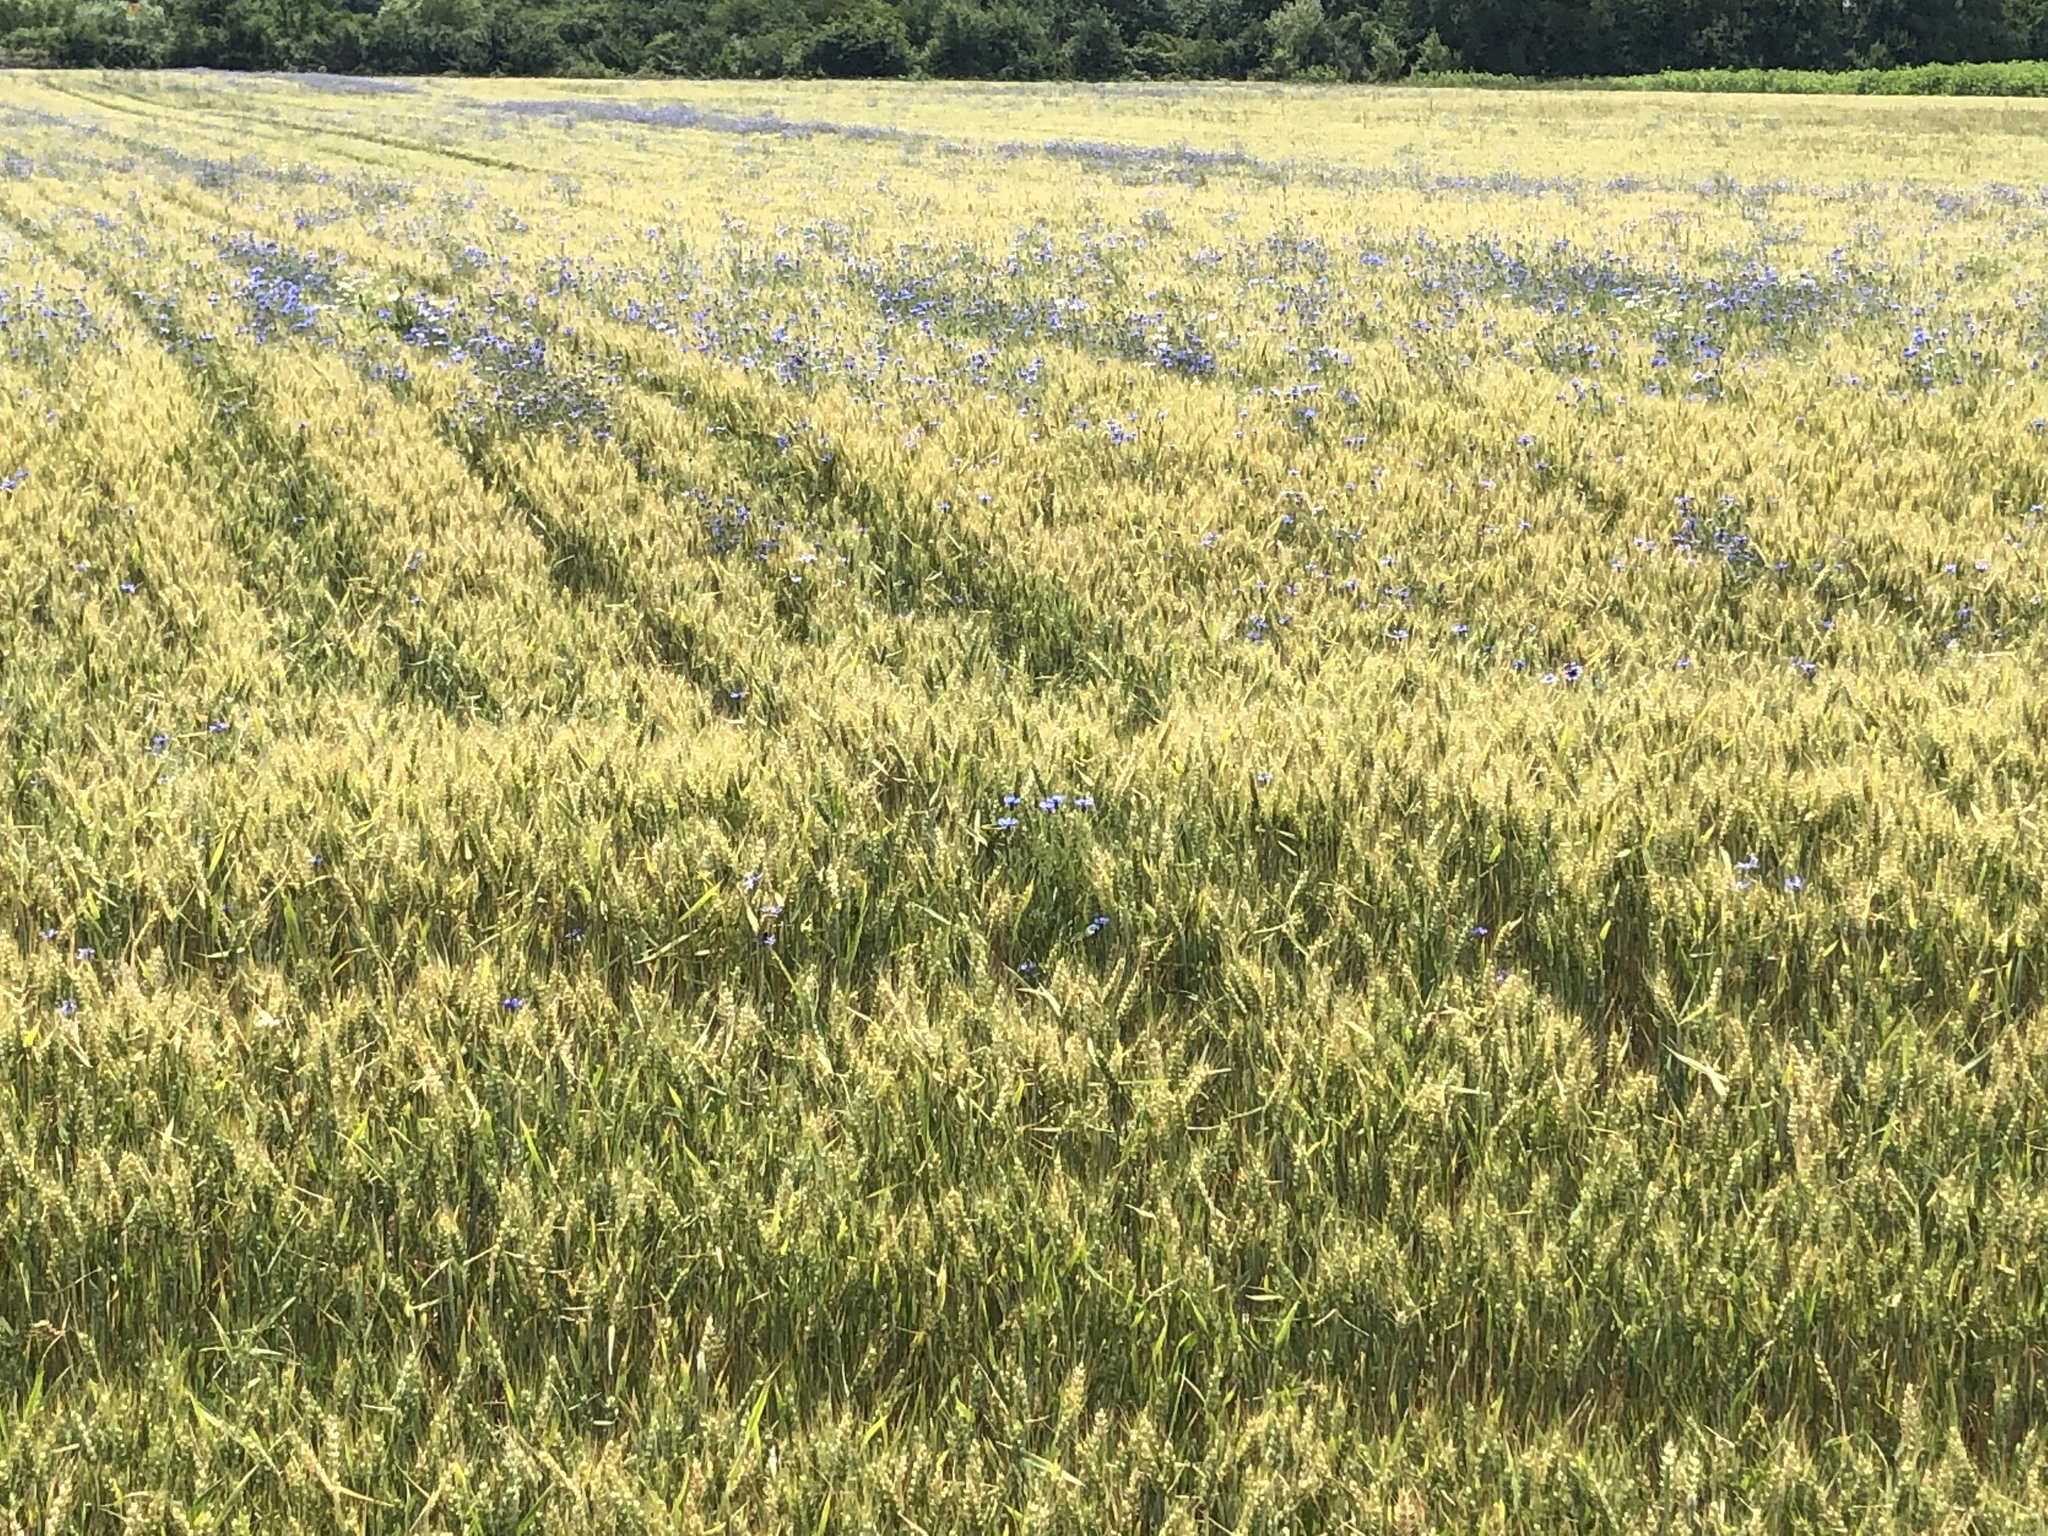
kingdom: Plantae
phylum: Tracheophyta
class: Magnoliopsida
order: Asterales
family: Asteraceae
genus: Centaurea
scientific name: Centaurea cyanus
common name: Cornflower
